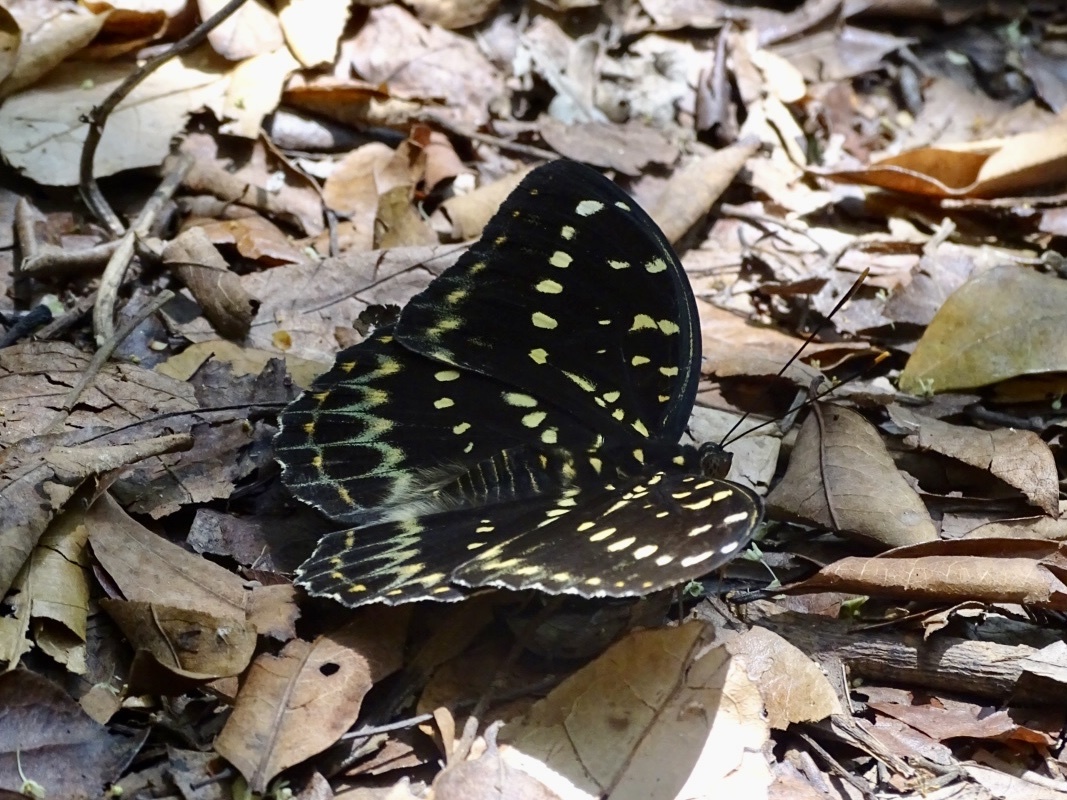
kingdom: Animalia
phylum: Arthropoda
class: Insecta
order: Lepidoptera
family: Nymphalidae
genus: Lexias
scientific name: Lexias pardalis
